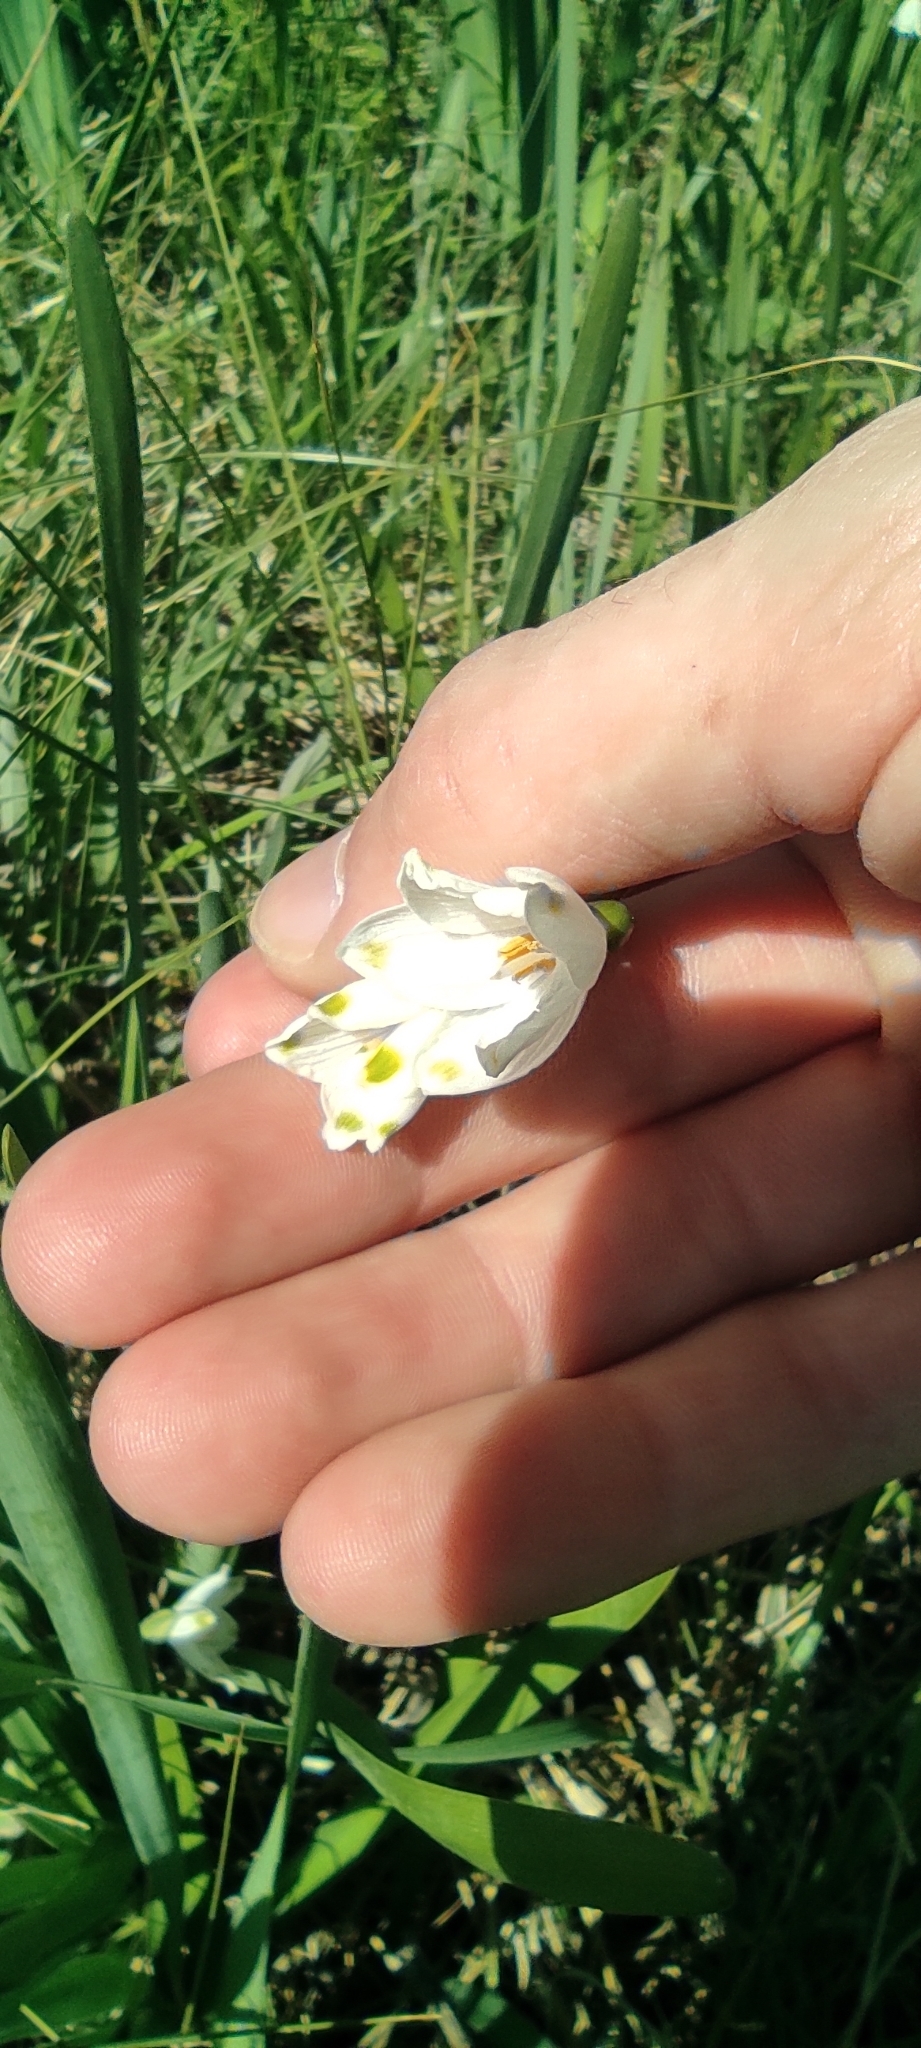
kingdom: Plantae
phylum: Tracheophyta
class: Liliopsida
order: Asparagales
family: Amaryllidaceae
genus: Leucojum
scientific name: Leucojum aestivum
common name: Summer snowflake
